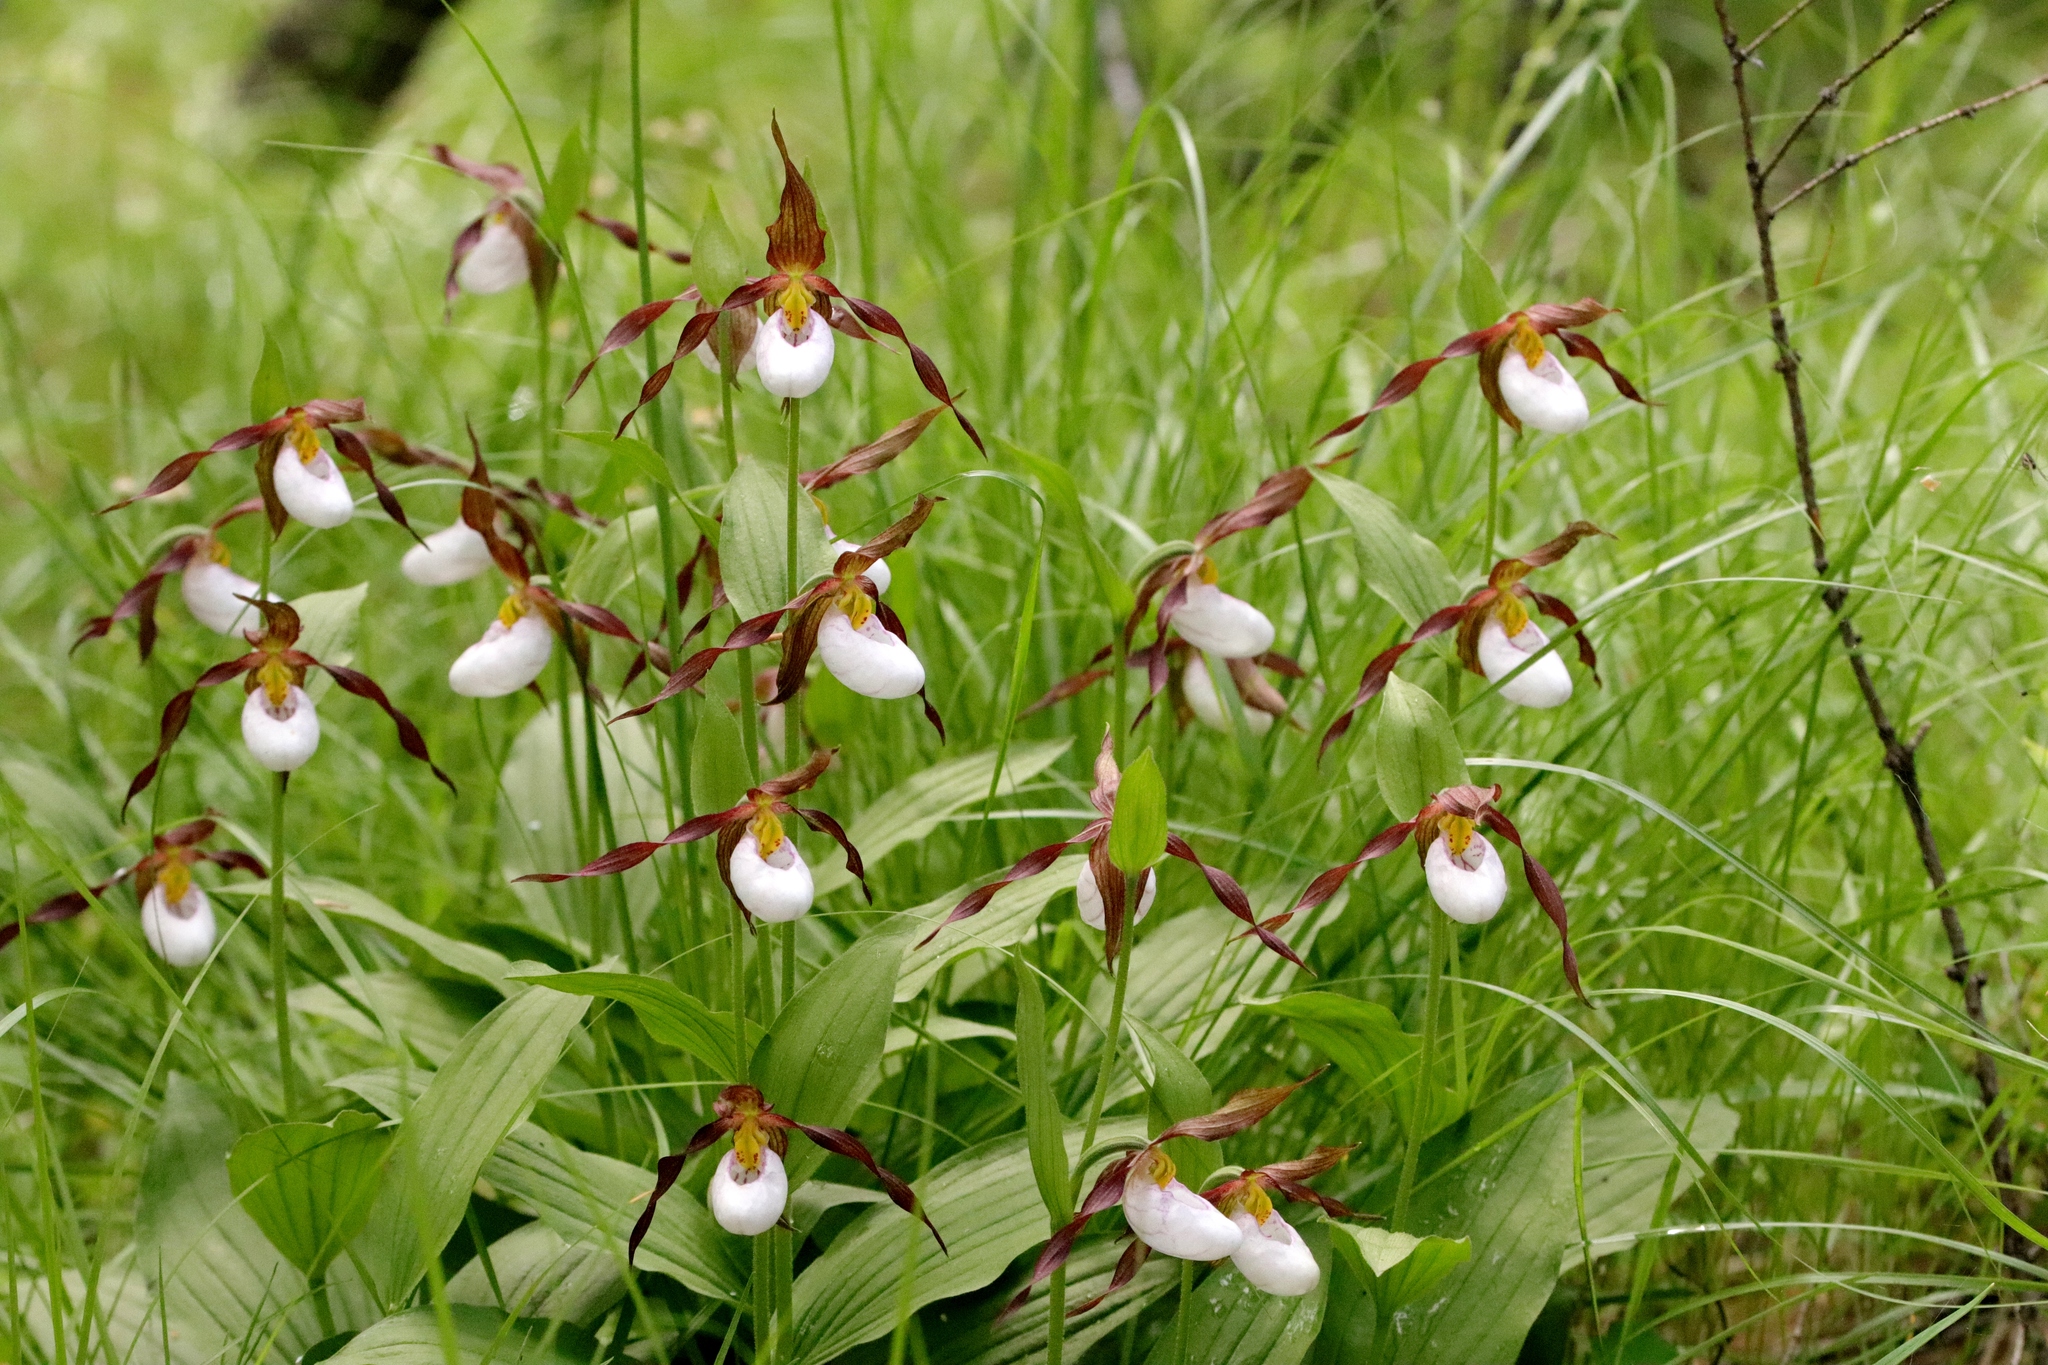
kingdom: Plantae
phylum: Tracheophyta
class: Liliopsida
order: Asparagales
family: Orchidaceae
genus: Cypripedium
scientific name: Cypripedium montanum
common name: Mountain lady's-slipper
